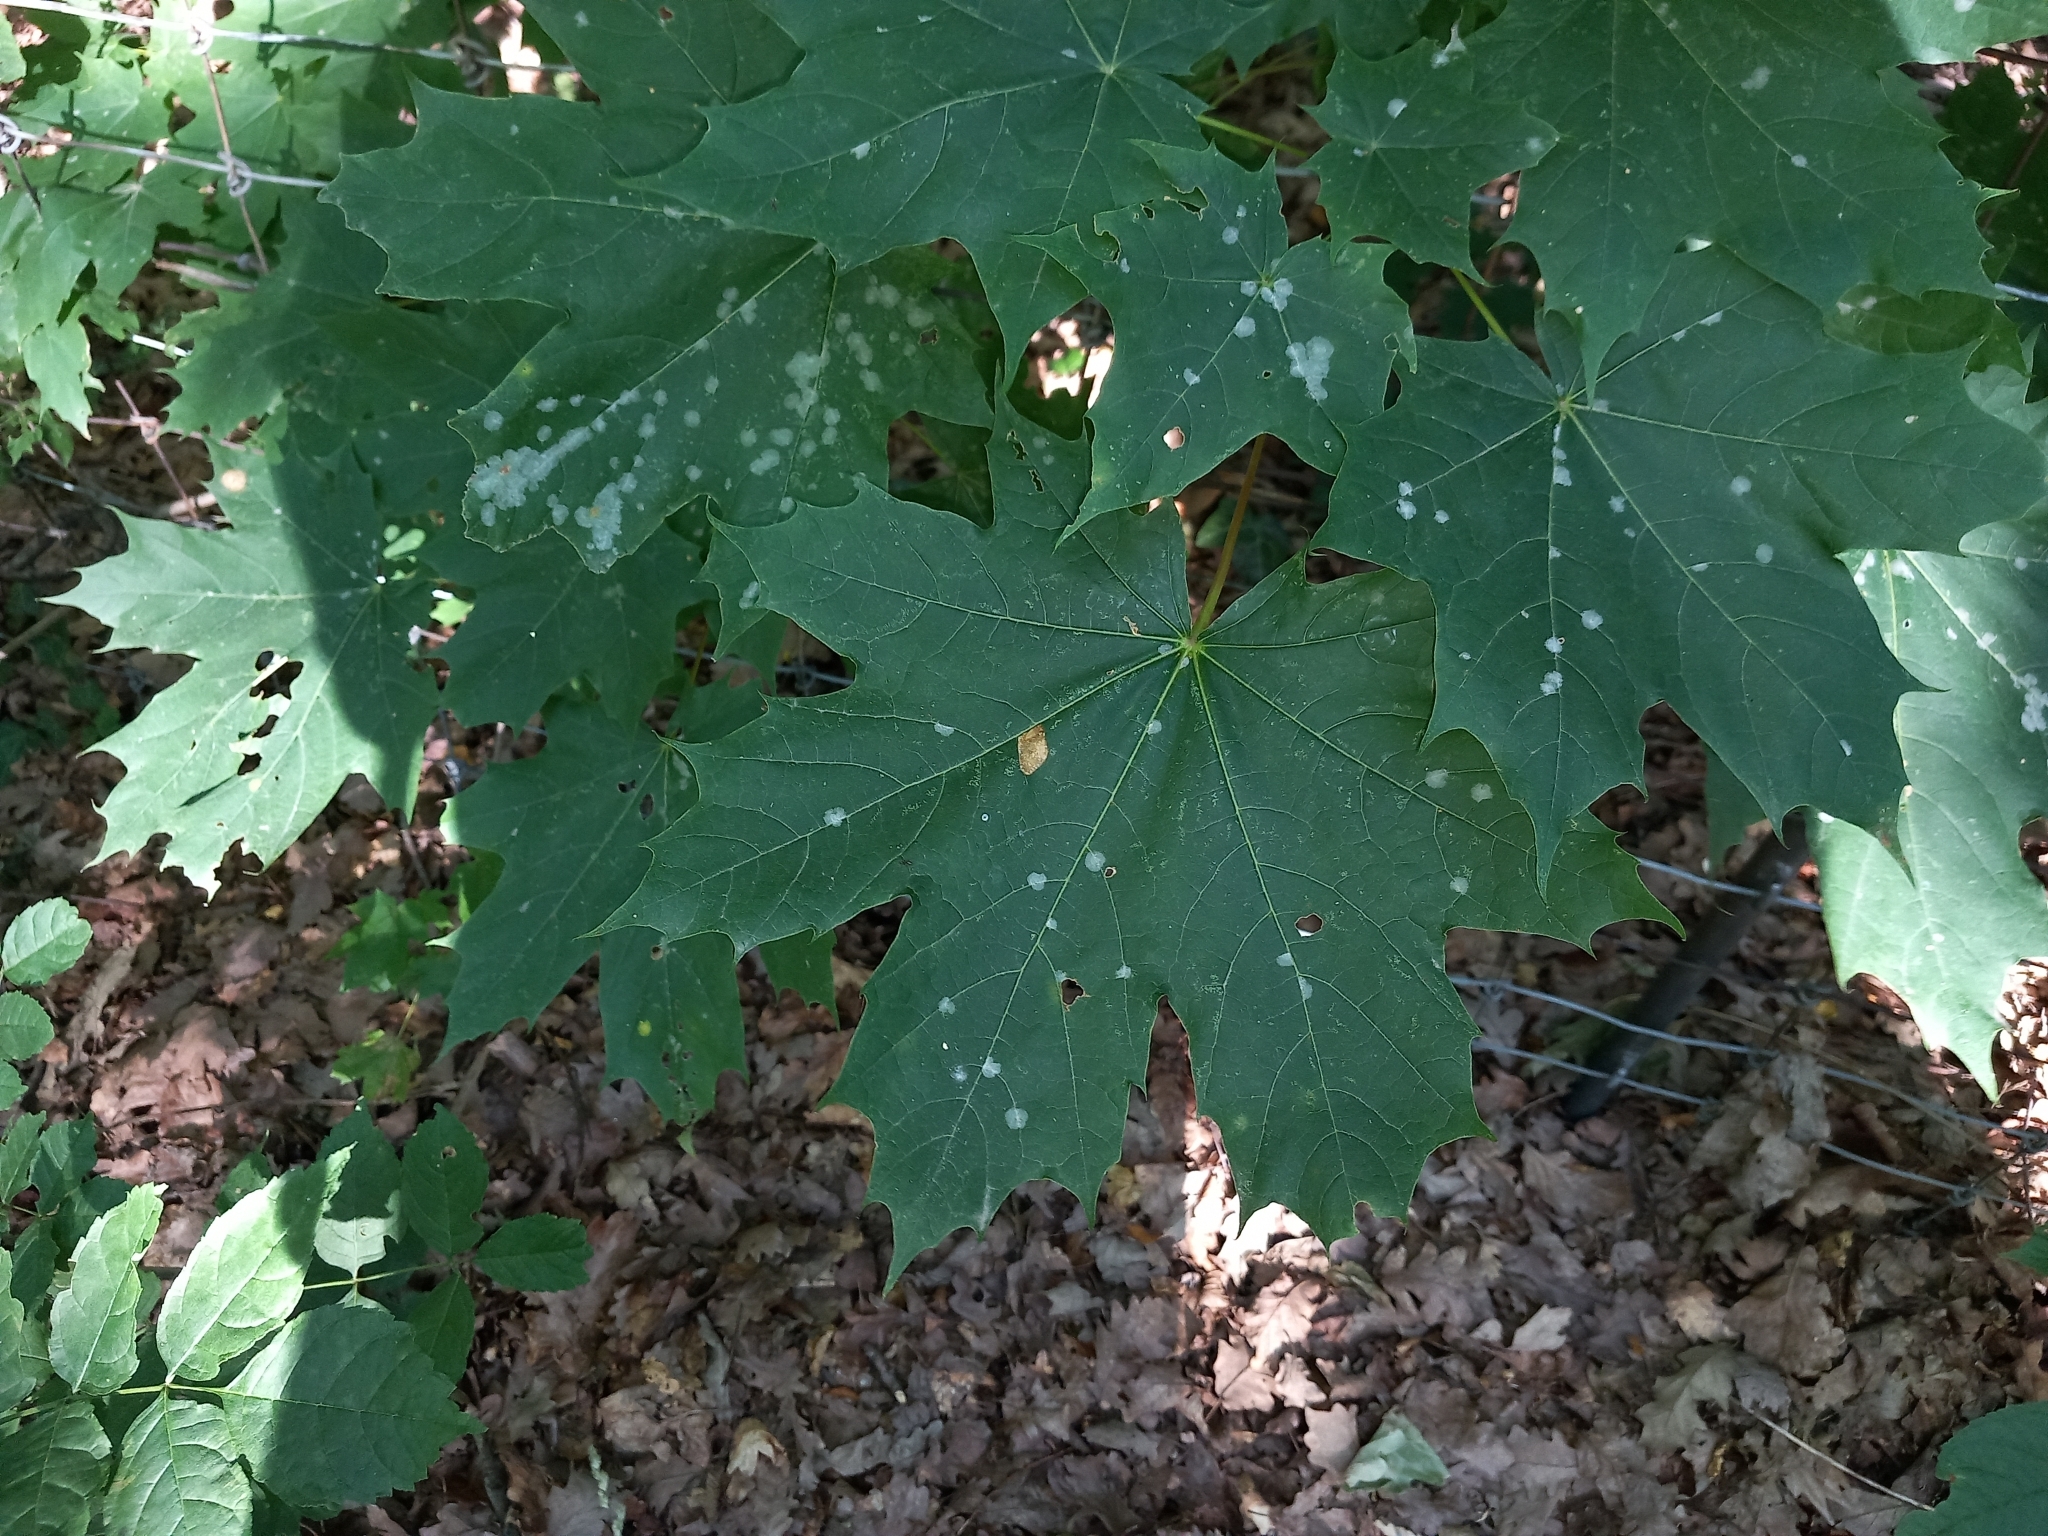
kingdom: Plantae
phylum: Tracheophyta
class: Magnoliopsida
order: Sapindales
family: Sapindaceae
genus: Acer
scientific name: Acer platanoides
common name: Norway maple
